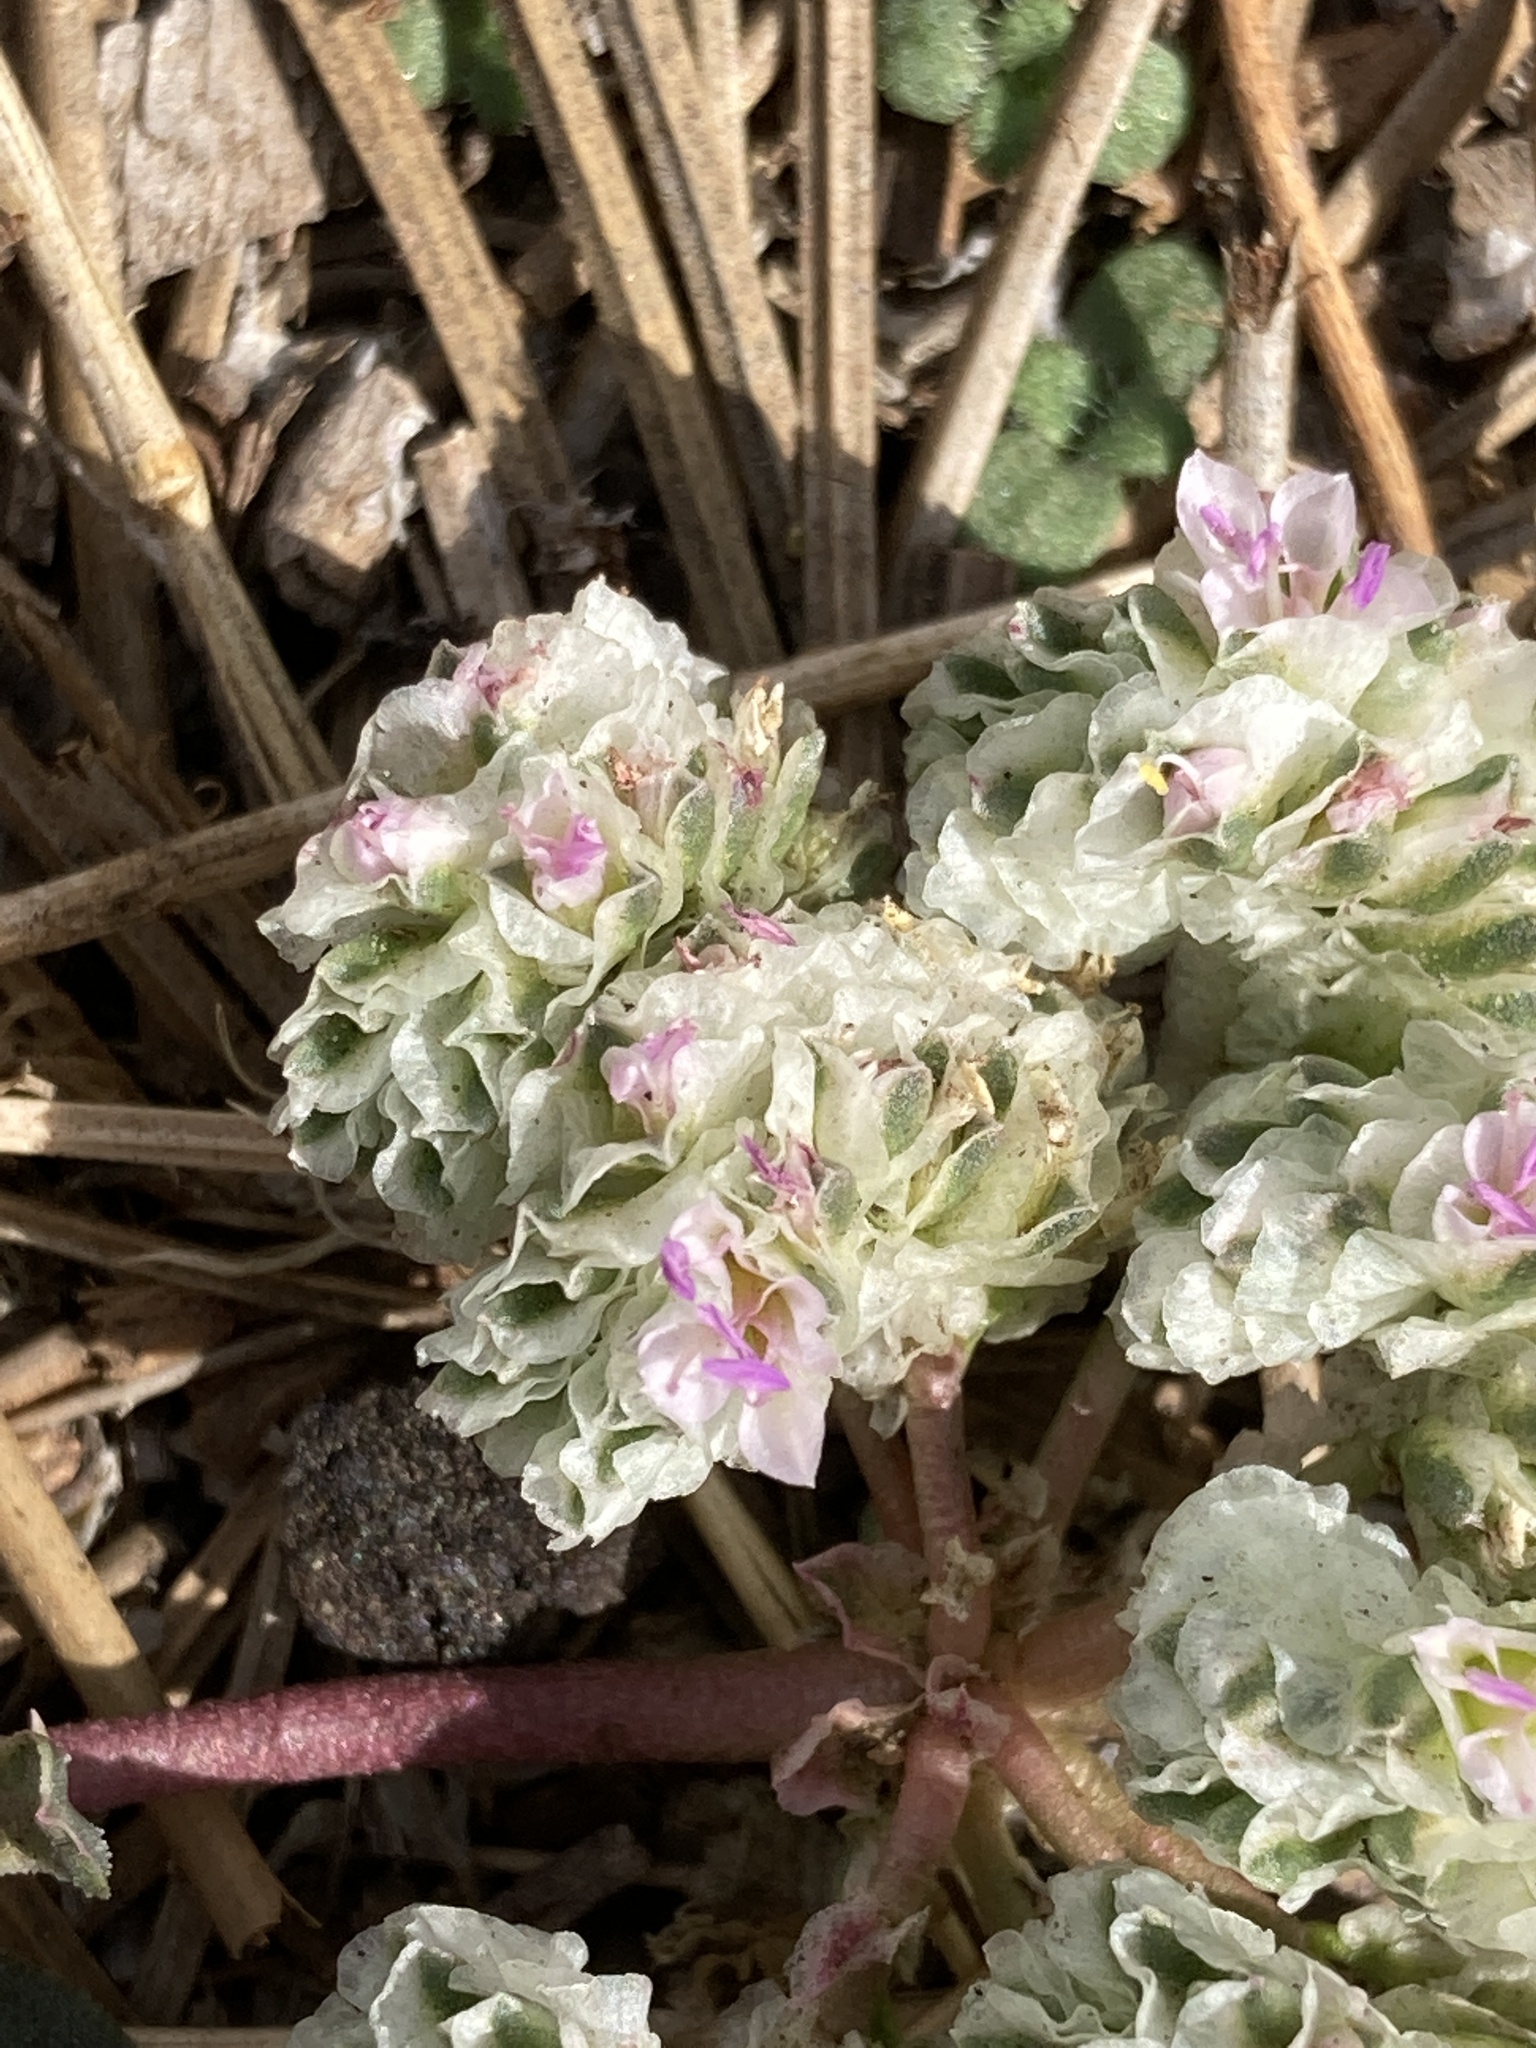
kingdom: Plantae
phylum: Tracheophyta
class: Magnoliopsida
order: Caryophyllales
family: Montiaceae
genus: Calyptridium
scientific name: Calyptridium monospermum
